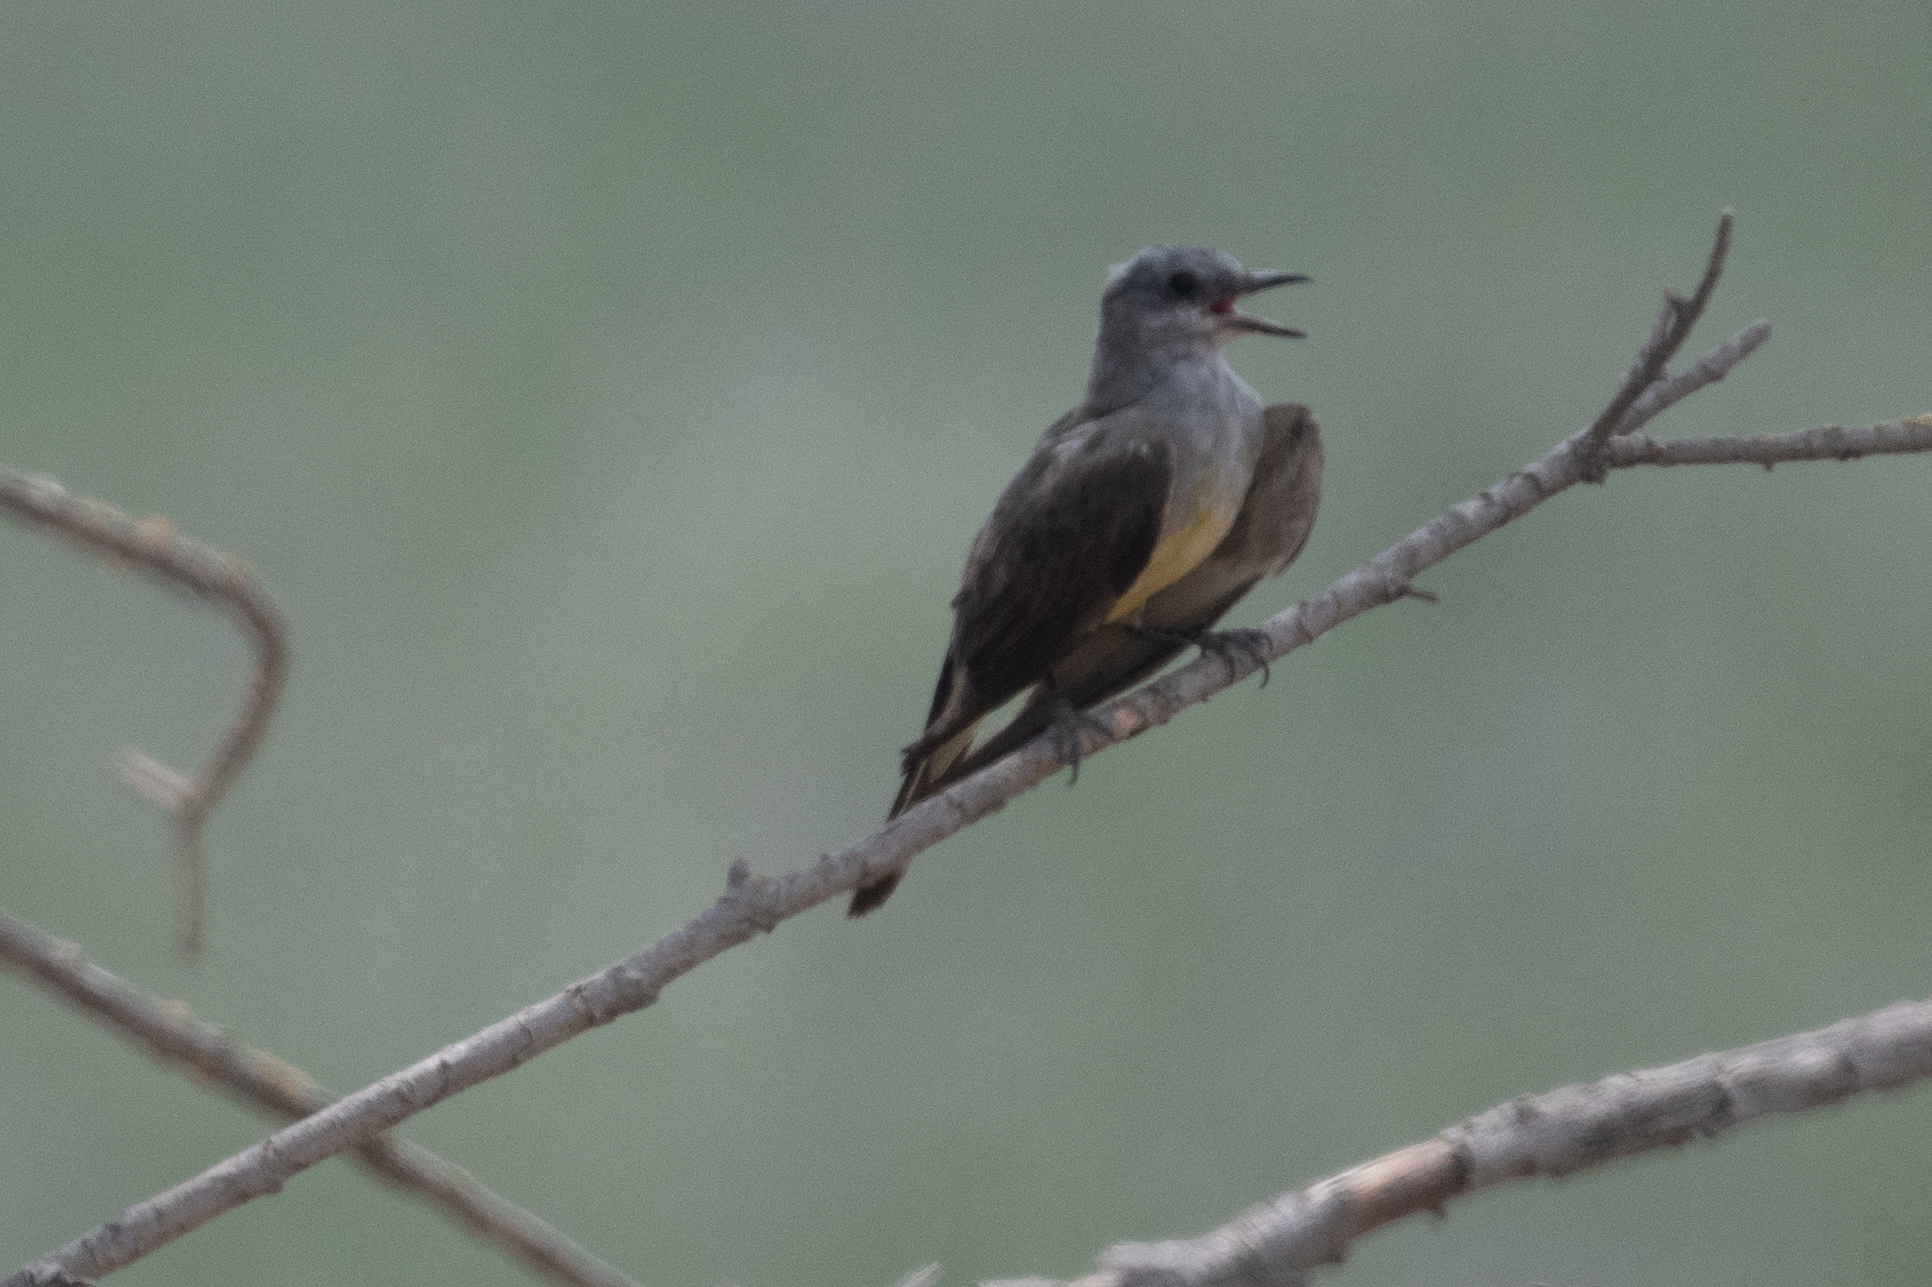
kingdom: Animalia
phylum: Chordata
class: Aves
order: Passeriformes
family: Tyrannidae
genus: Tyrannus
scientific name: Tyrannus verticalis
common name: Western kingbird
